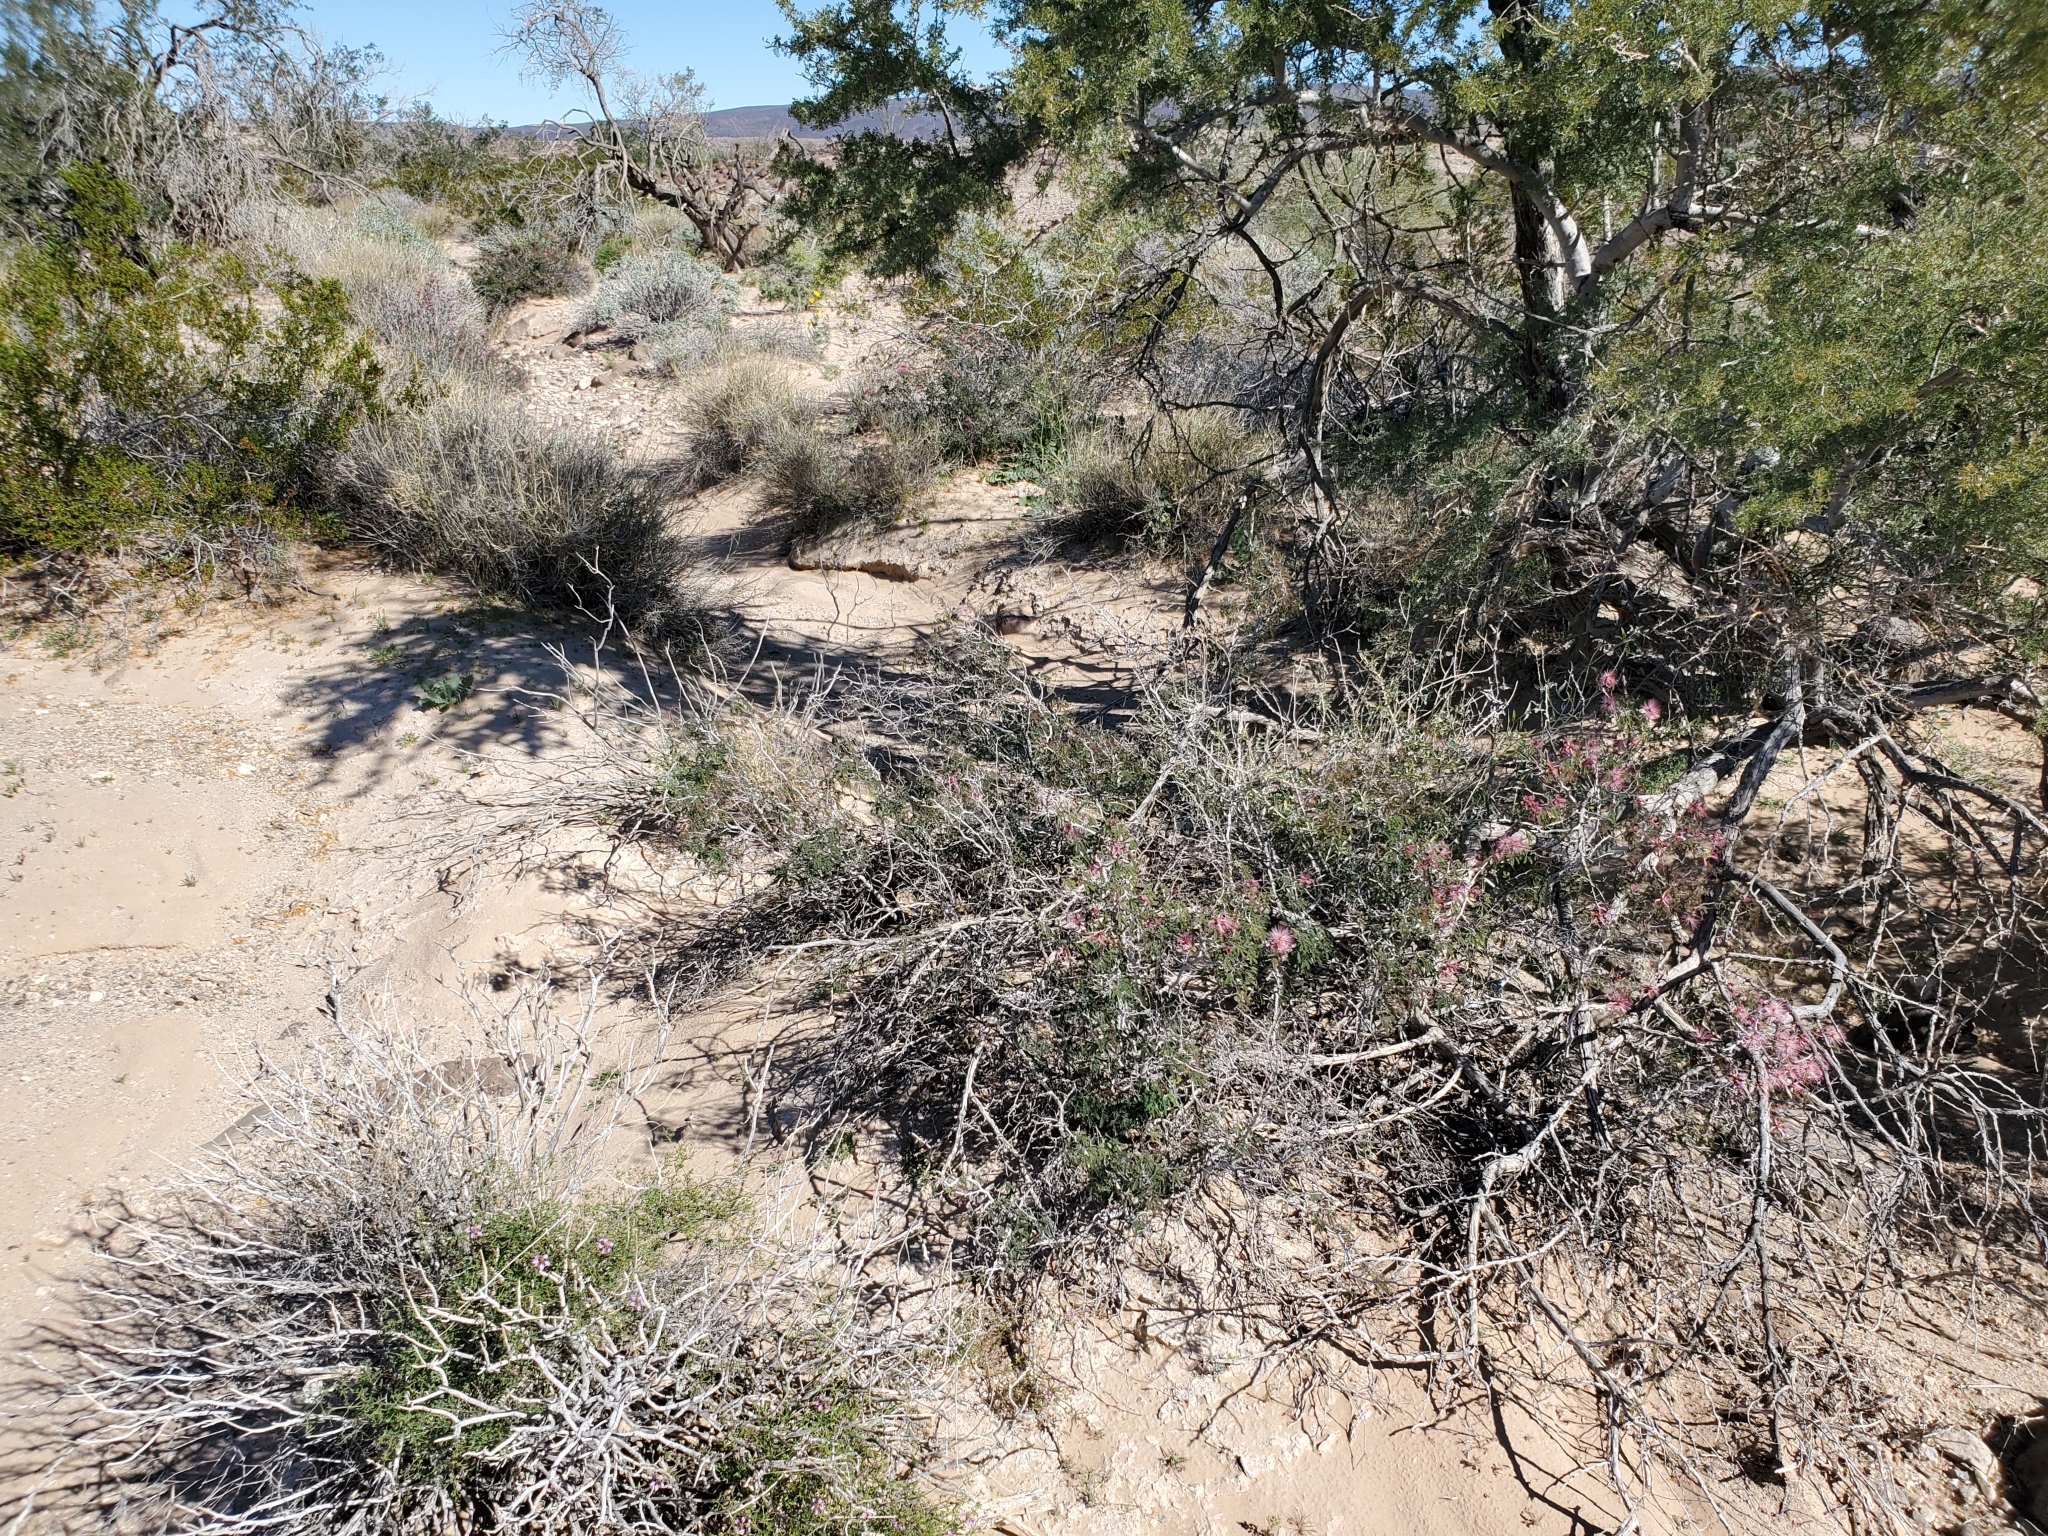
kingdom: Plantae
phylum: Tracheophyta
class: Magnoliopsida
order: Fabales
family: Fabaceae
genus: Calliandra
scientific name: Calliandra eriophylla
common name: Fairy-duster
